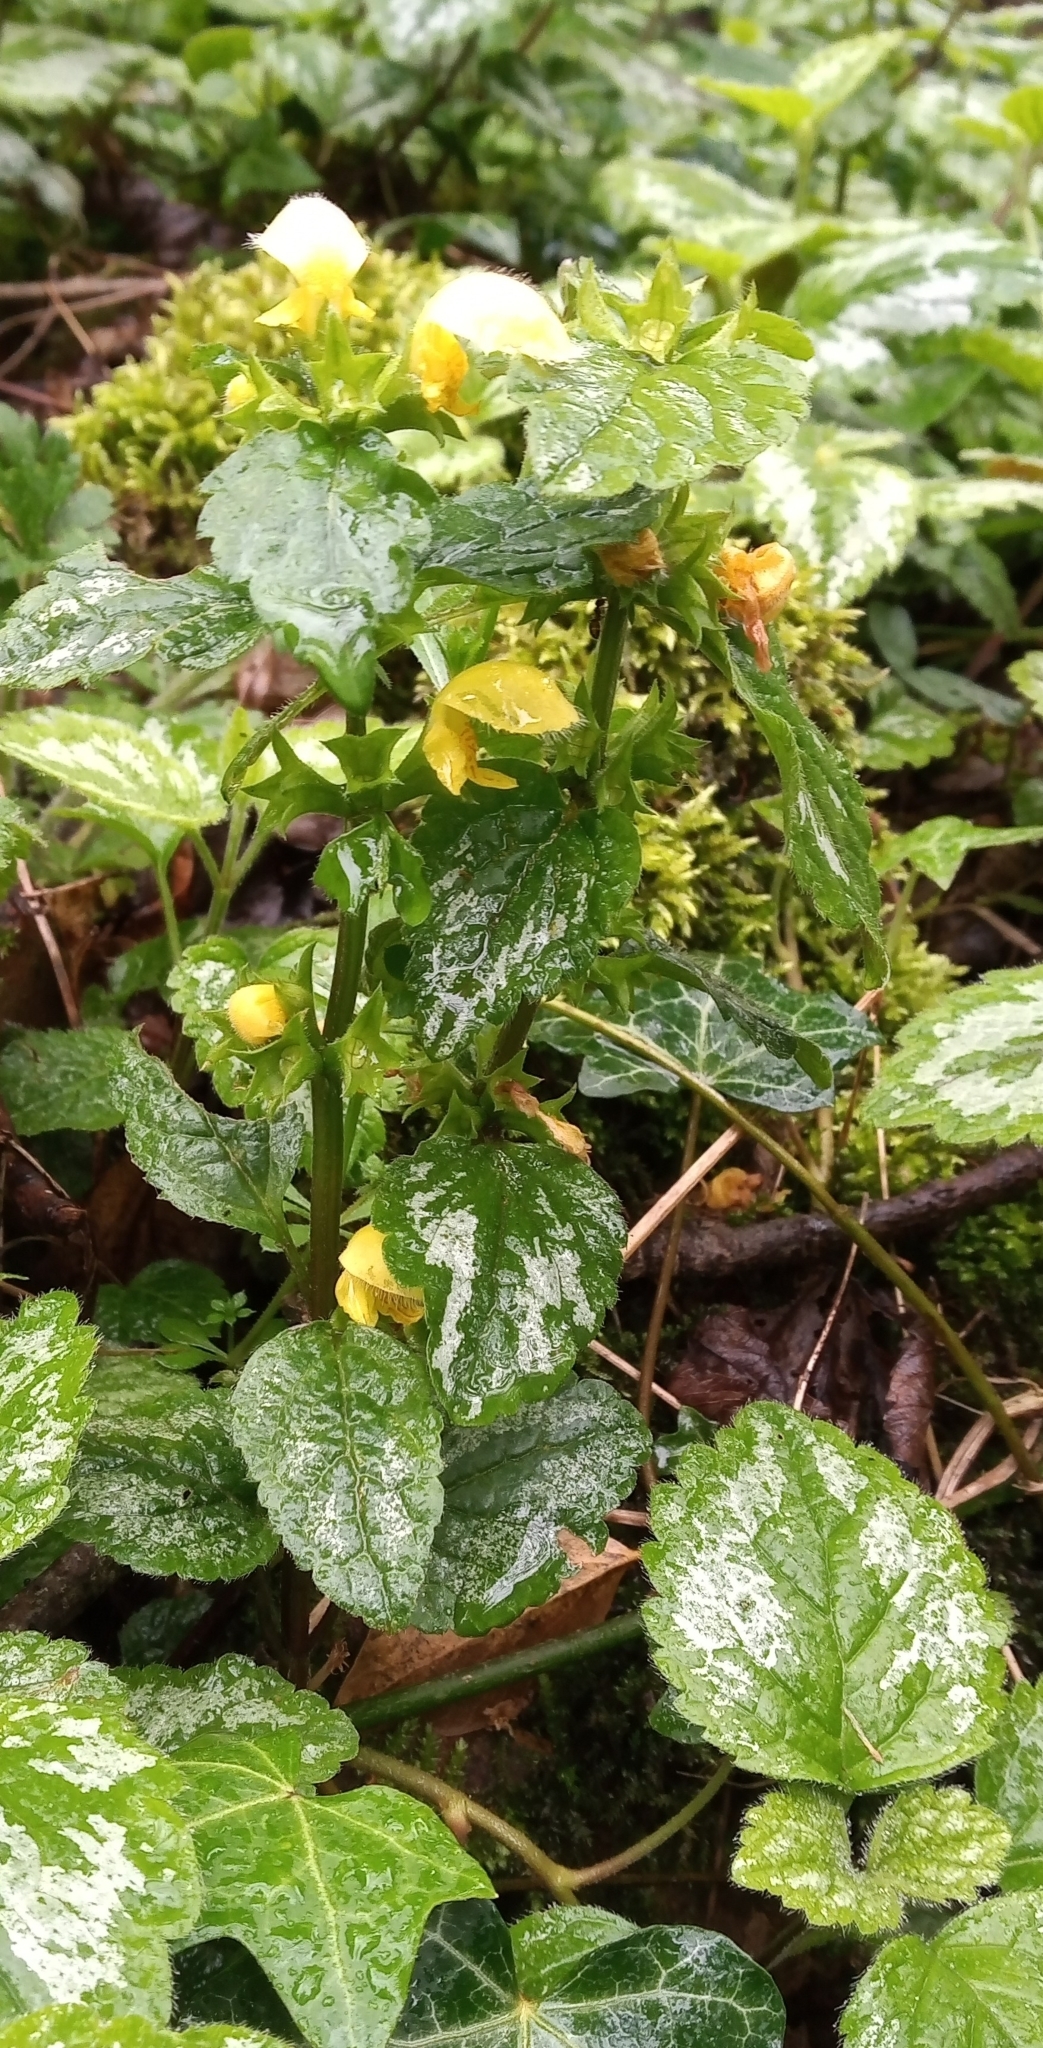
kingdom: Plantae
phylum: Tracheophyta
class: Magnoliopsida
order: Lamiales
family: Lamiaceae
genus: Lamium
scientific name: Lamium galeobdolon
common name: Yellow archangel
